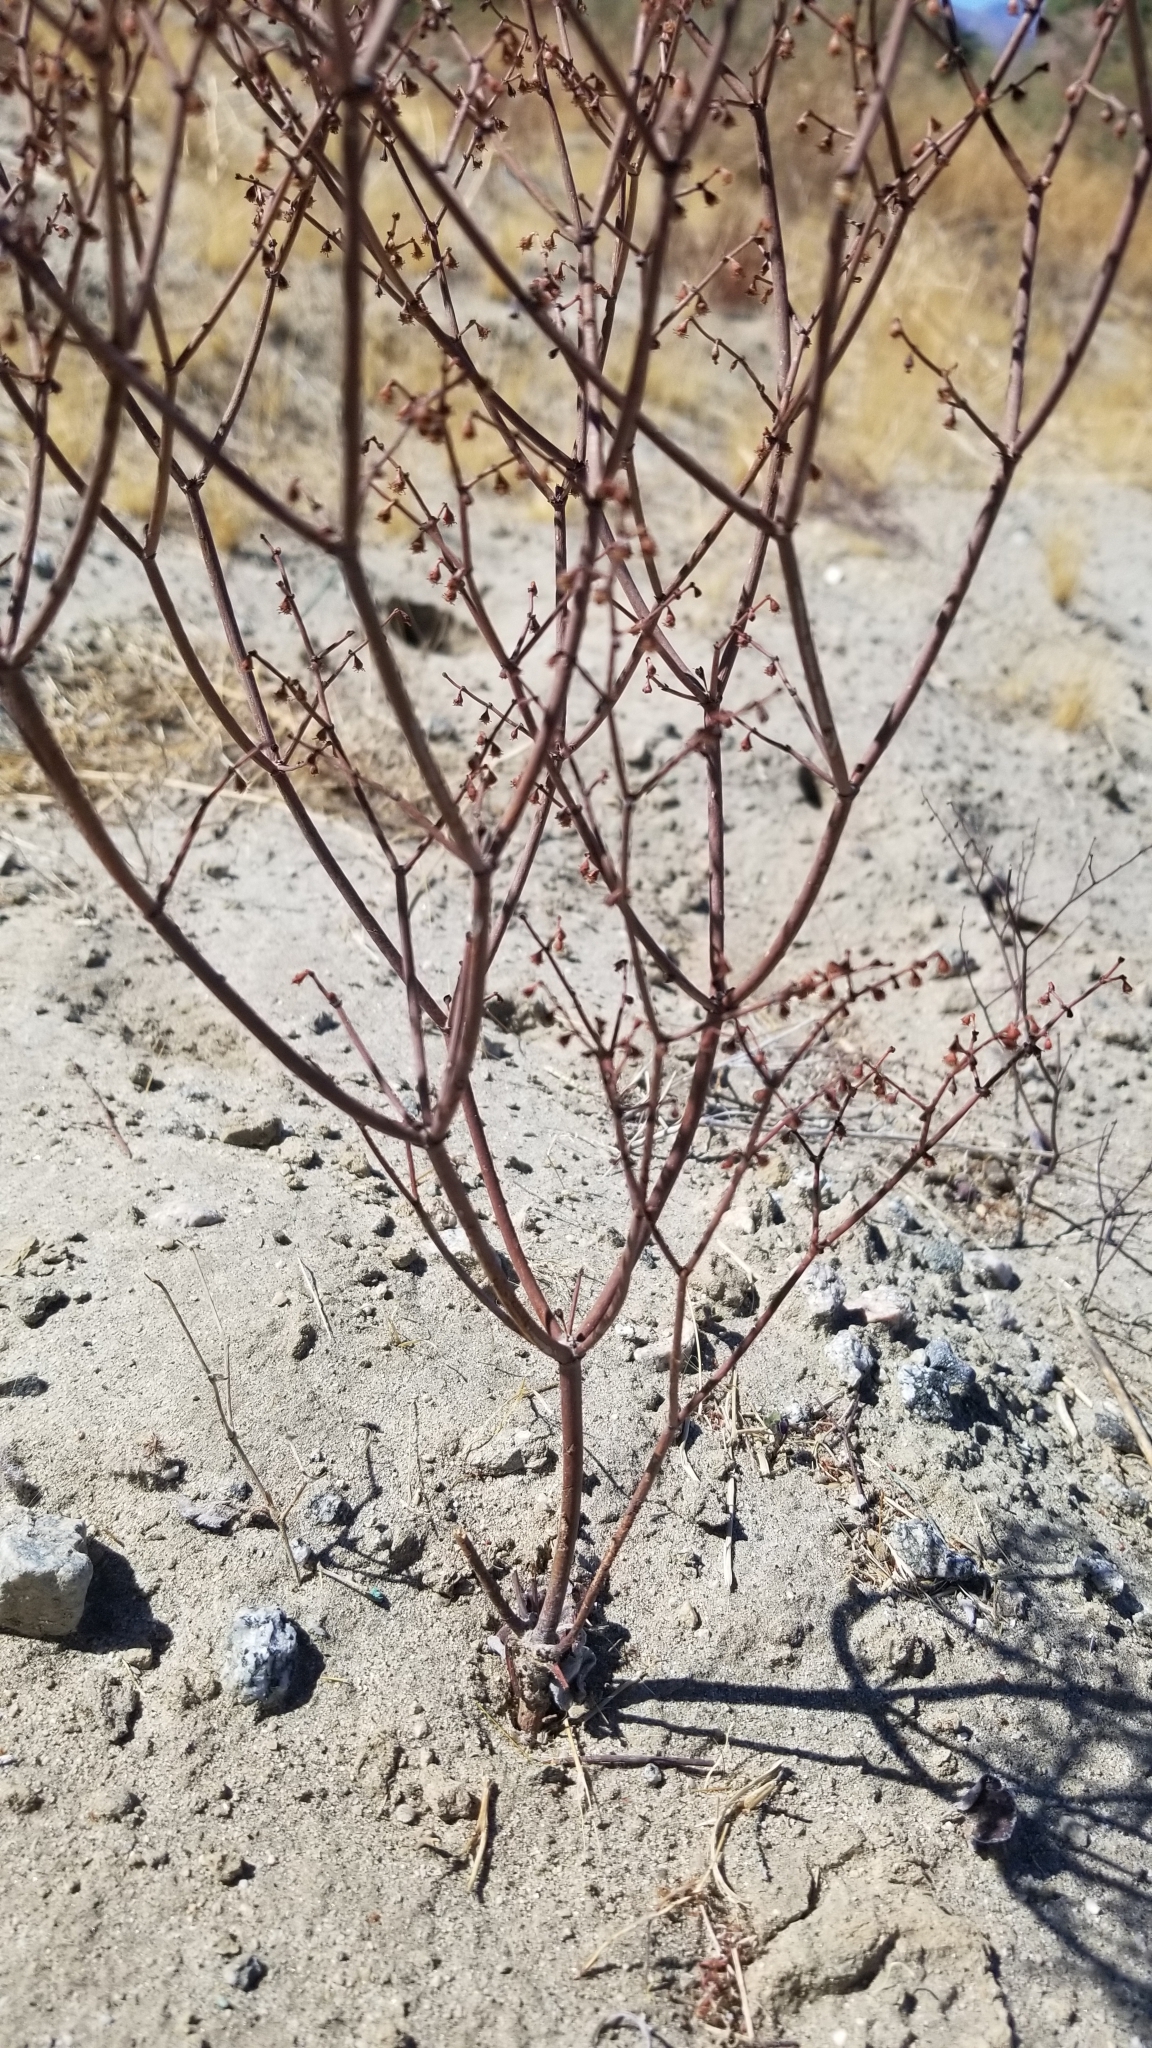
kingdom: Plantae
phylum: Tracheophyta
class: Magnoliopsida
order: Caryophyllales
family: Polygonaceae
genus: Eriogonum
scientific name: Eriogonum deflexum
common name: Skeleton-weed
